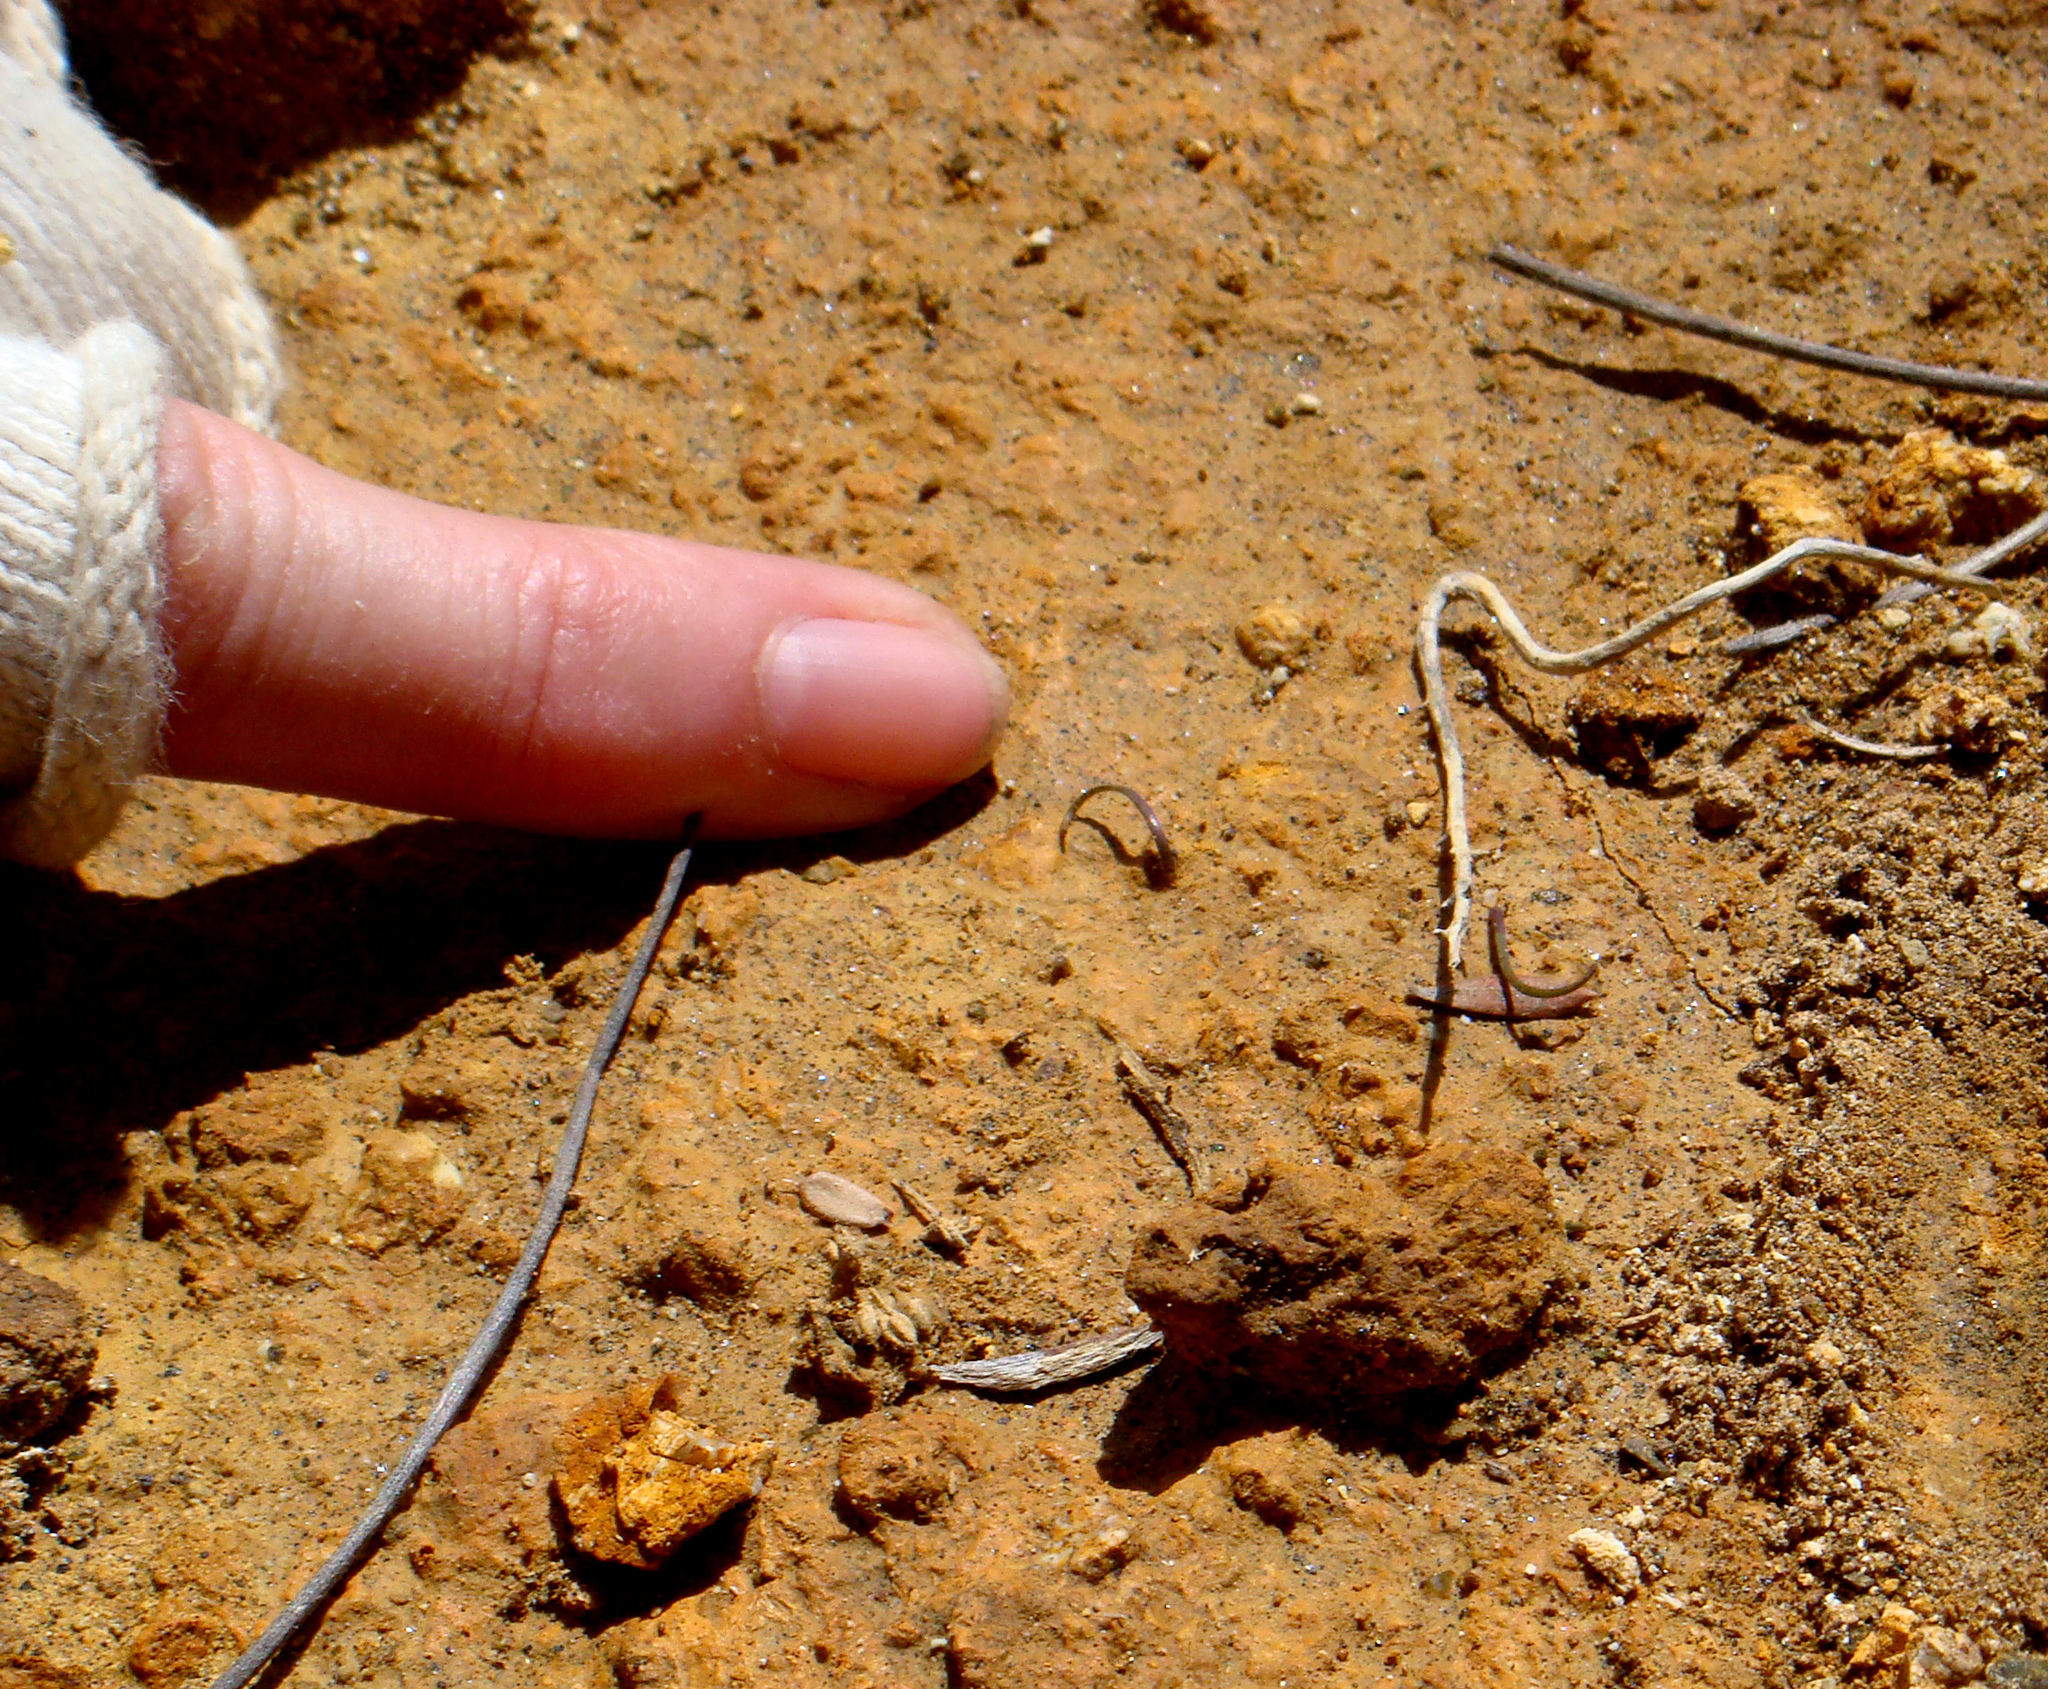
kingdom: Plantae
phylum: Tracheophyta
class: Liliopsida
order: Asparagales
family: Orchidaceae
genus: Thelymitra
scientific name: Thelymitra matthewsii
